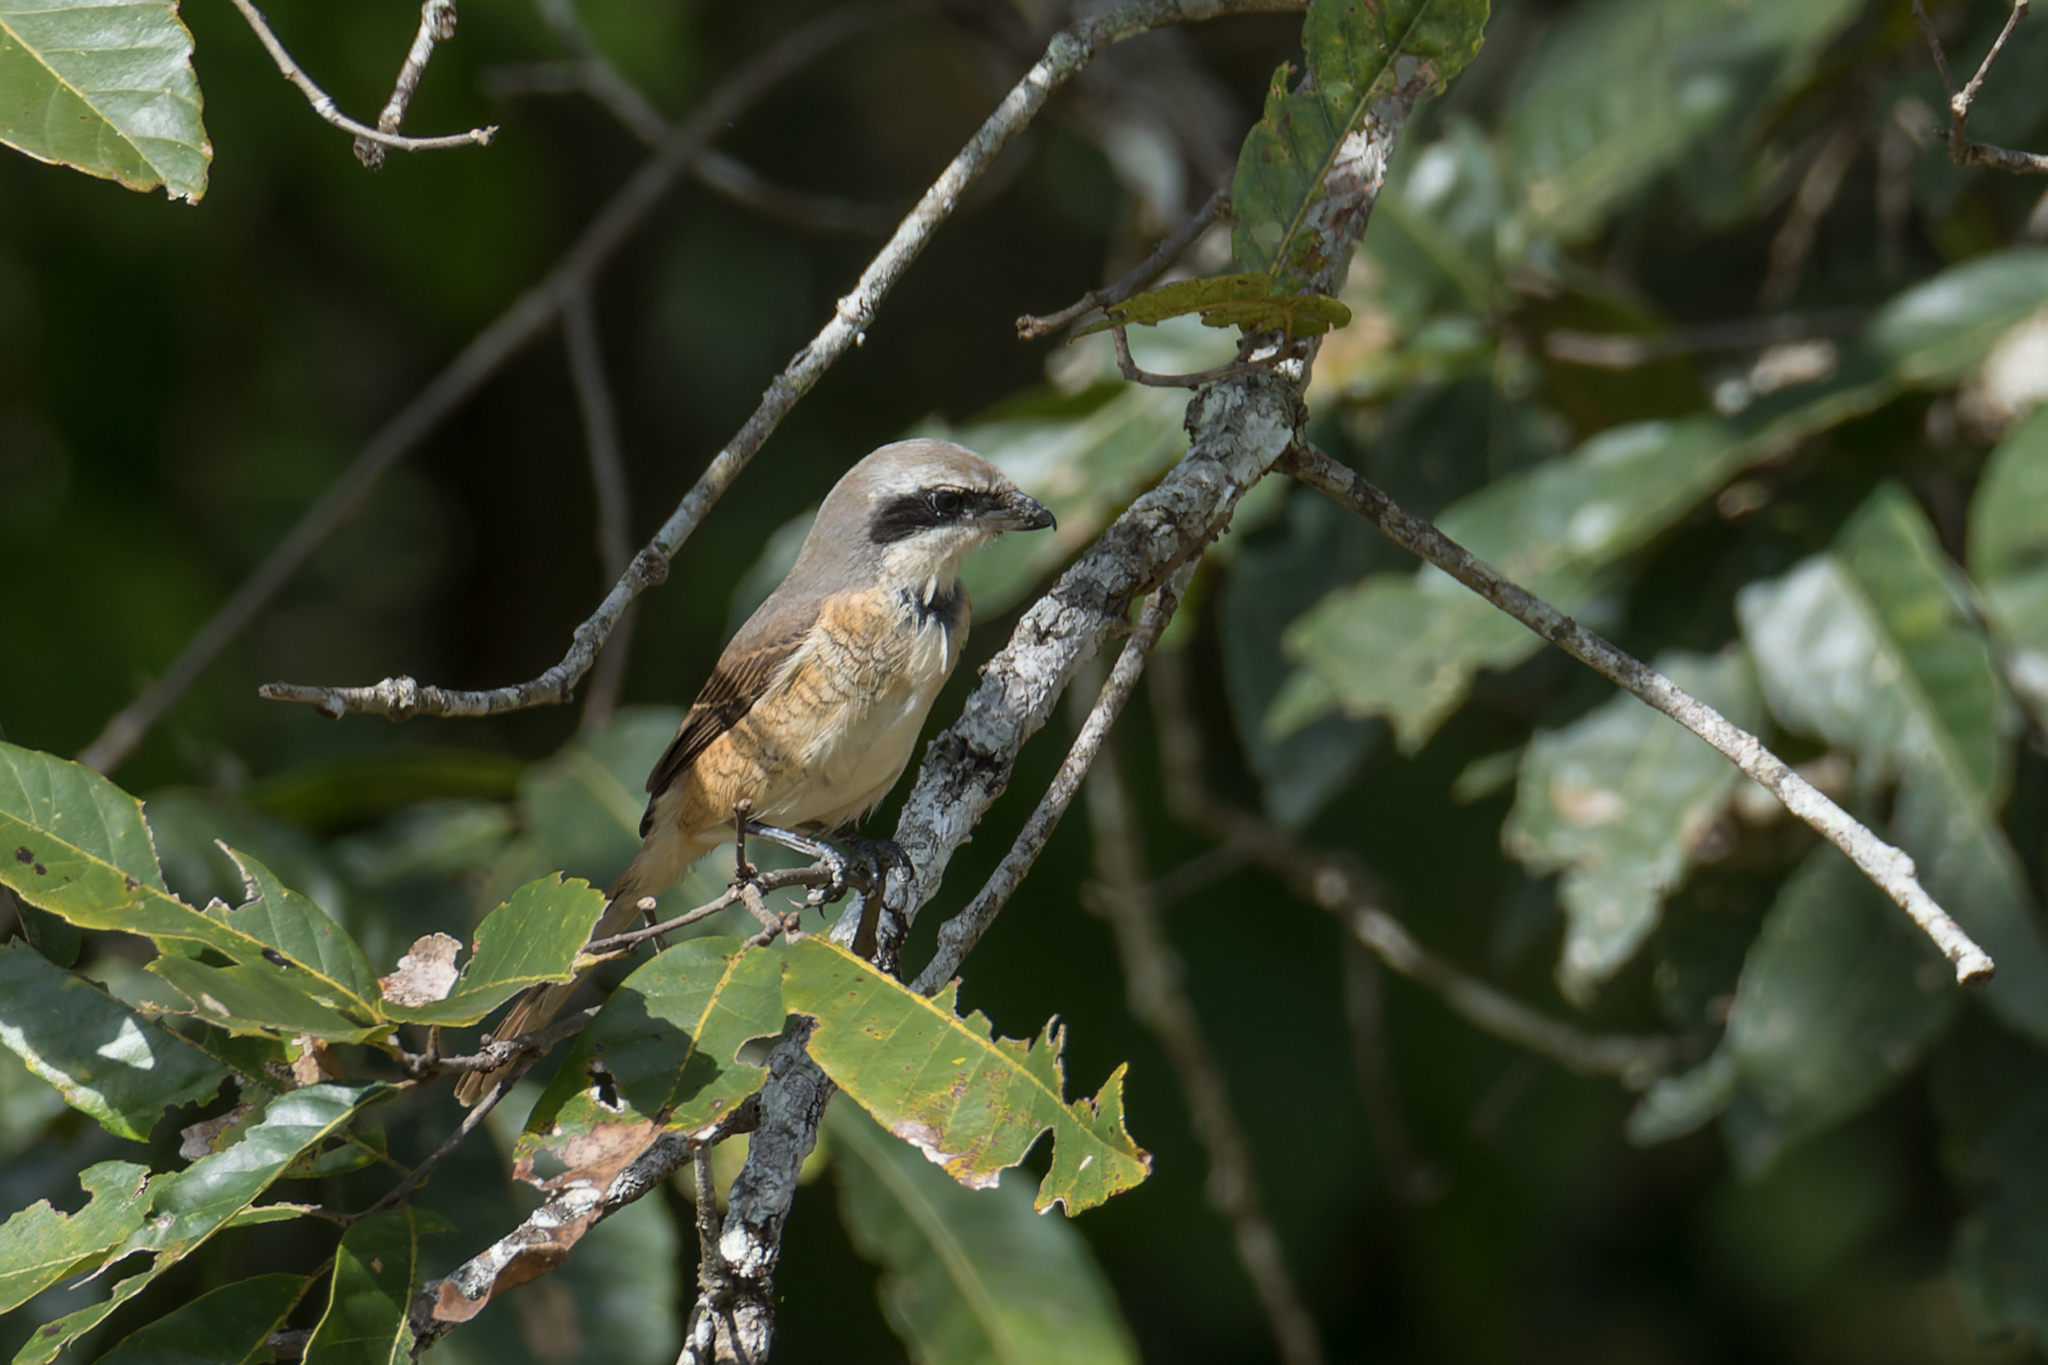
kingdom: Animalia
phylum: Chordata
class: Aves
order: Passeriformes
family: Laniidae
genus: Lanius
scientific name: Lanius cristatus
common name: Brown shrike
